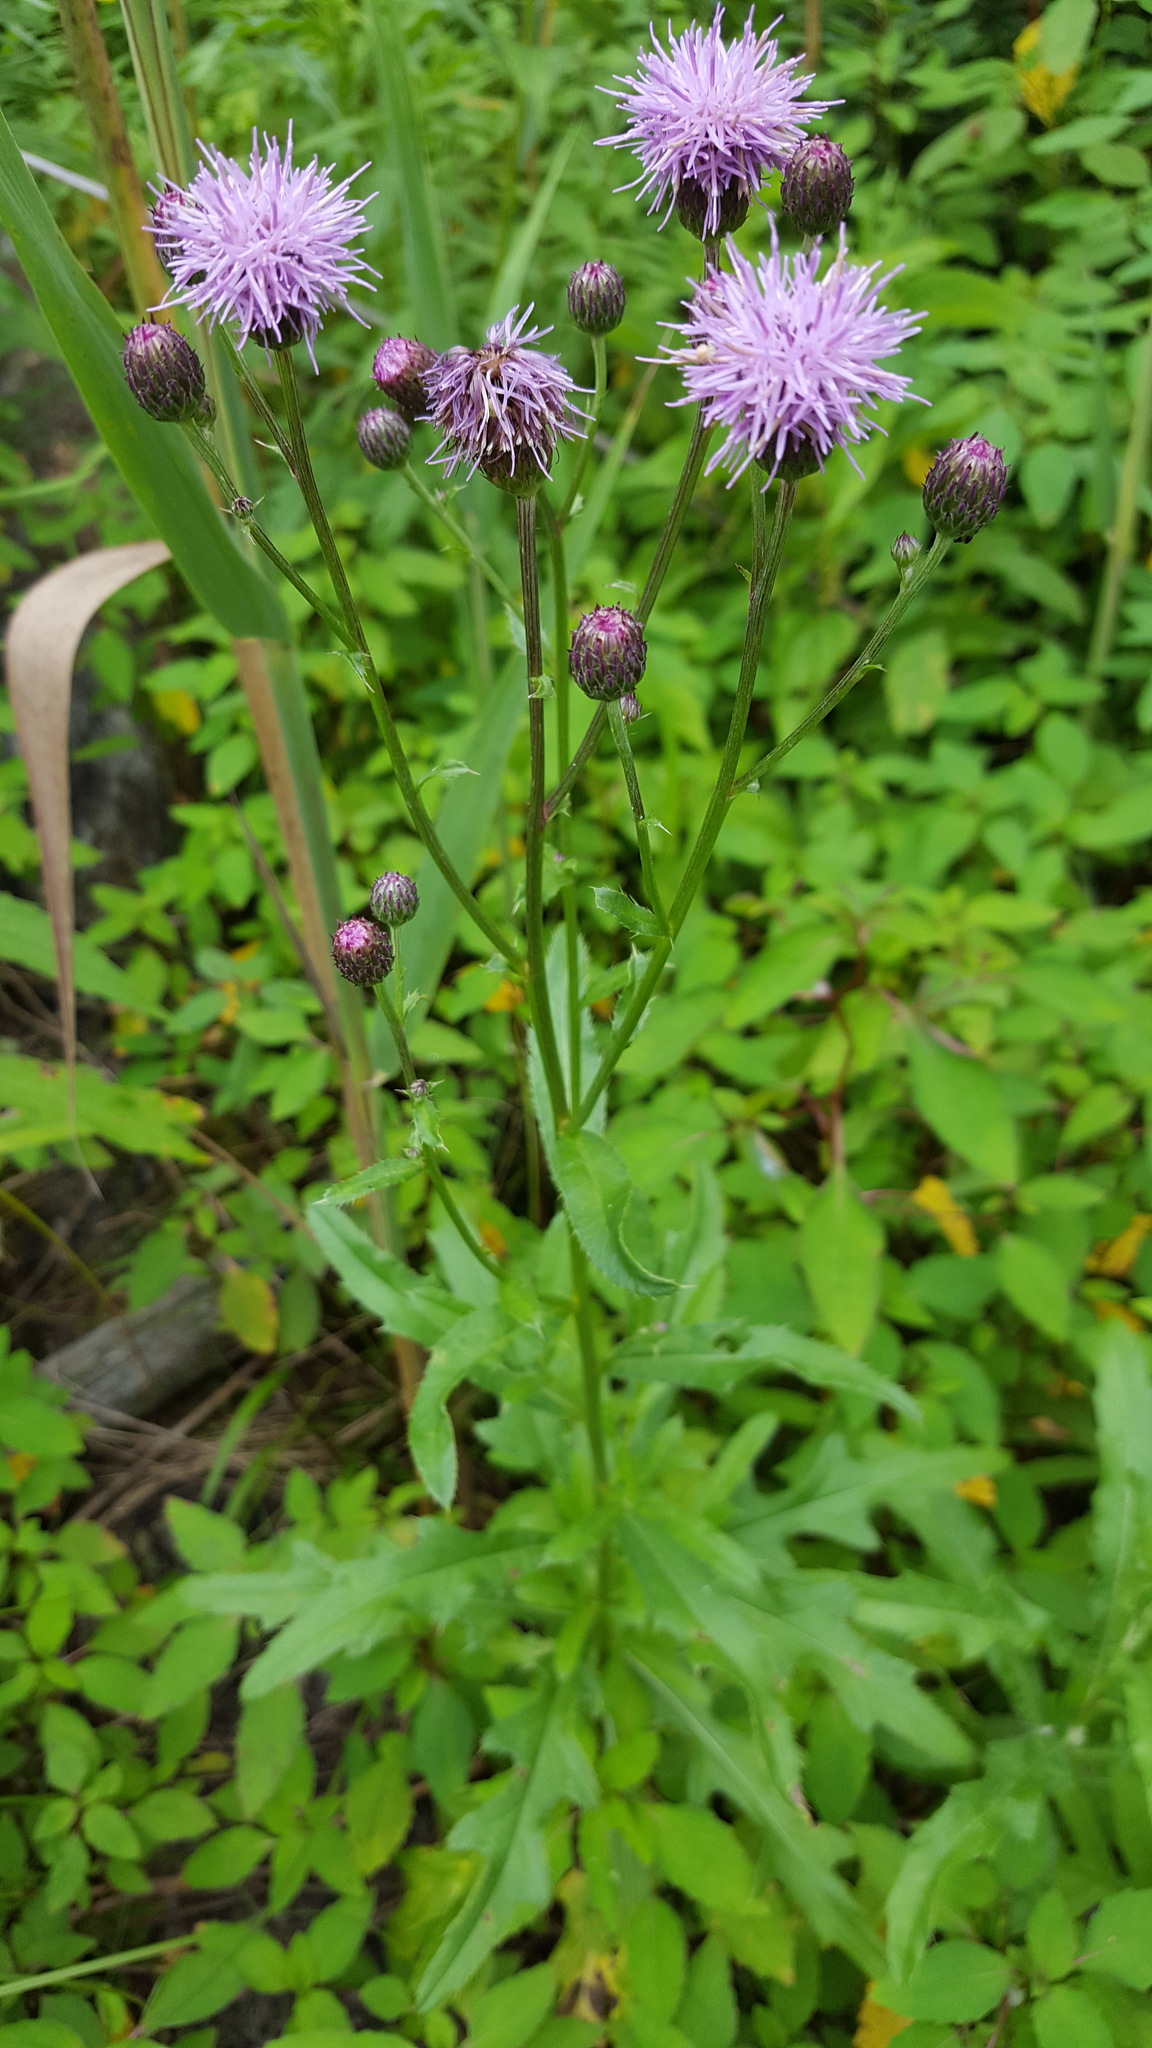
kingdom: Plantae
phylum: Tracheophyta
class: Magnoliopsida
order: Asterales
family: Asteraceae
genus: Cirsium
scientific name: Cirsium arvense
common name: Creeping thistle
